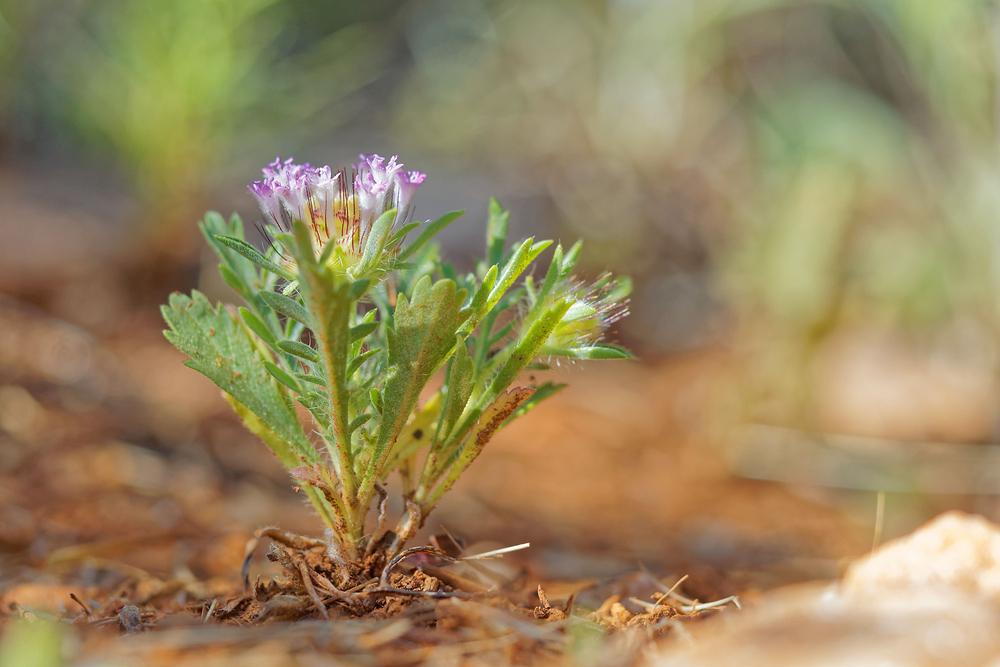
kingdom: Plantae
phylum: Tracheophyta
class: Magnoliopsida
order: Dipsacales
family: Caprifoliaceae
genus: Lomelosia
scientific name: Lomelosia stellata
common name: Teasel
